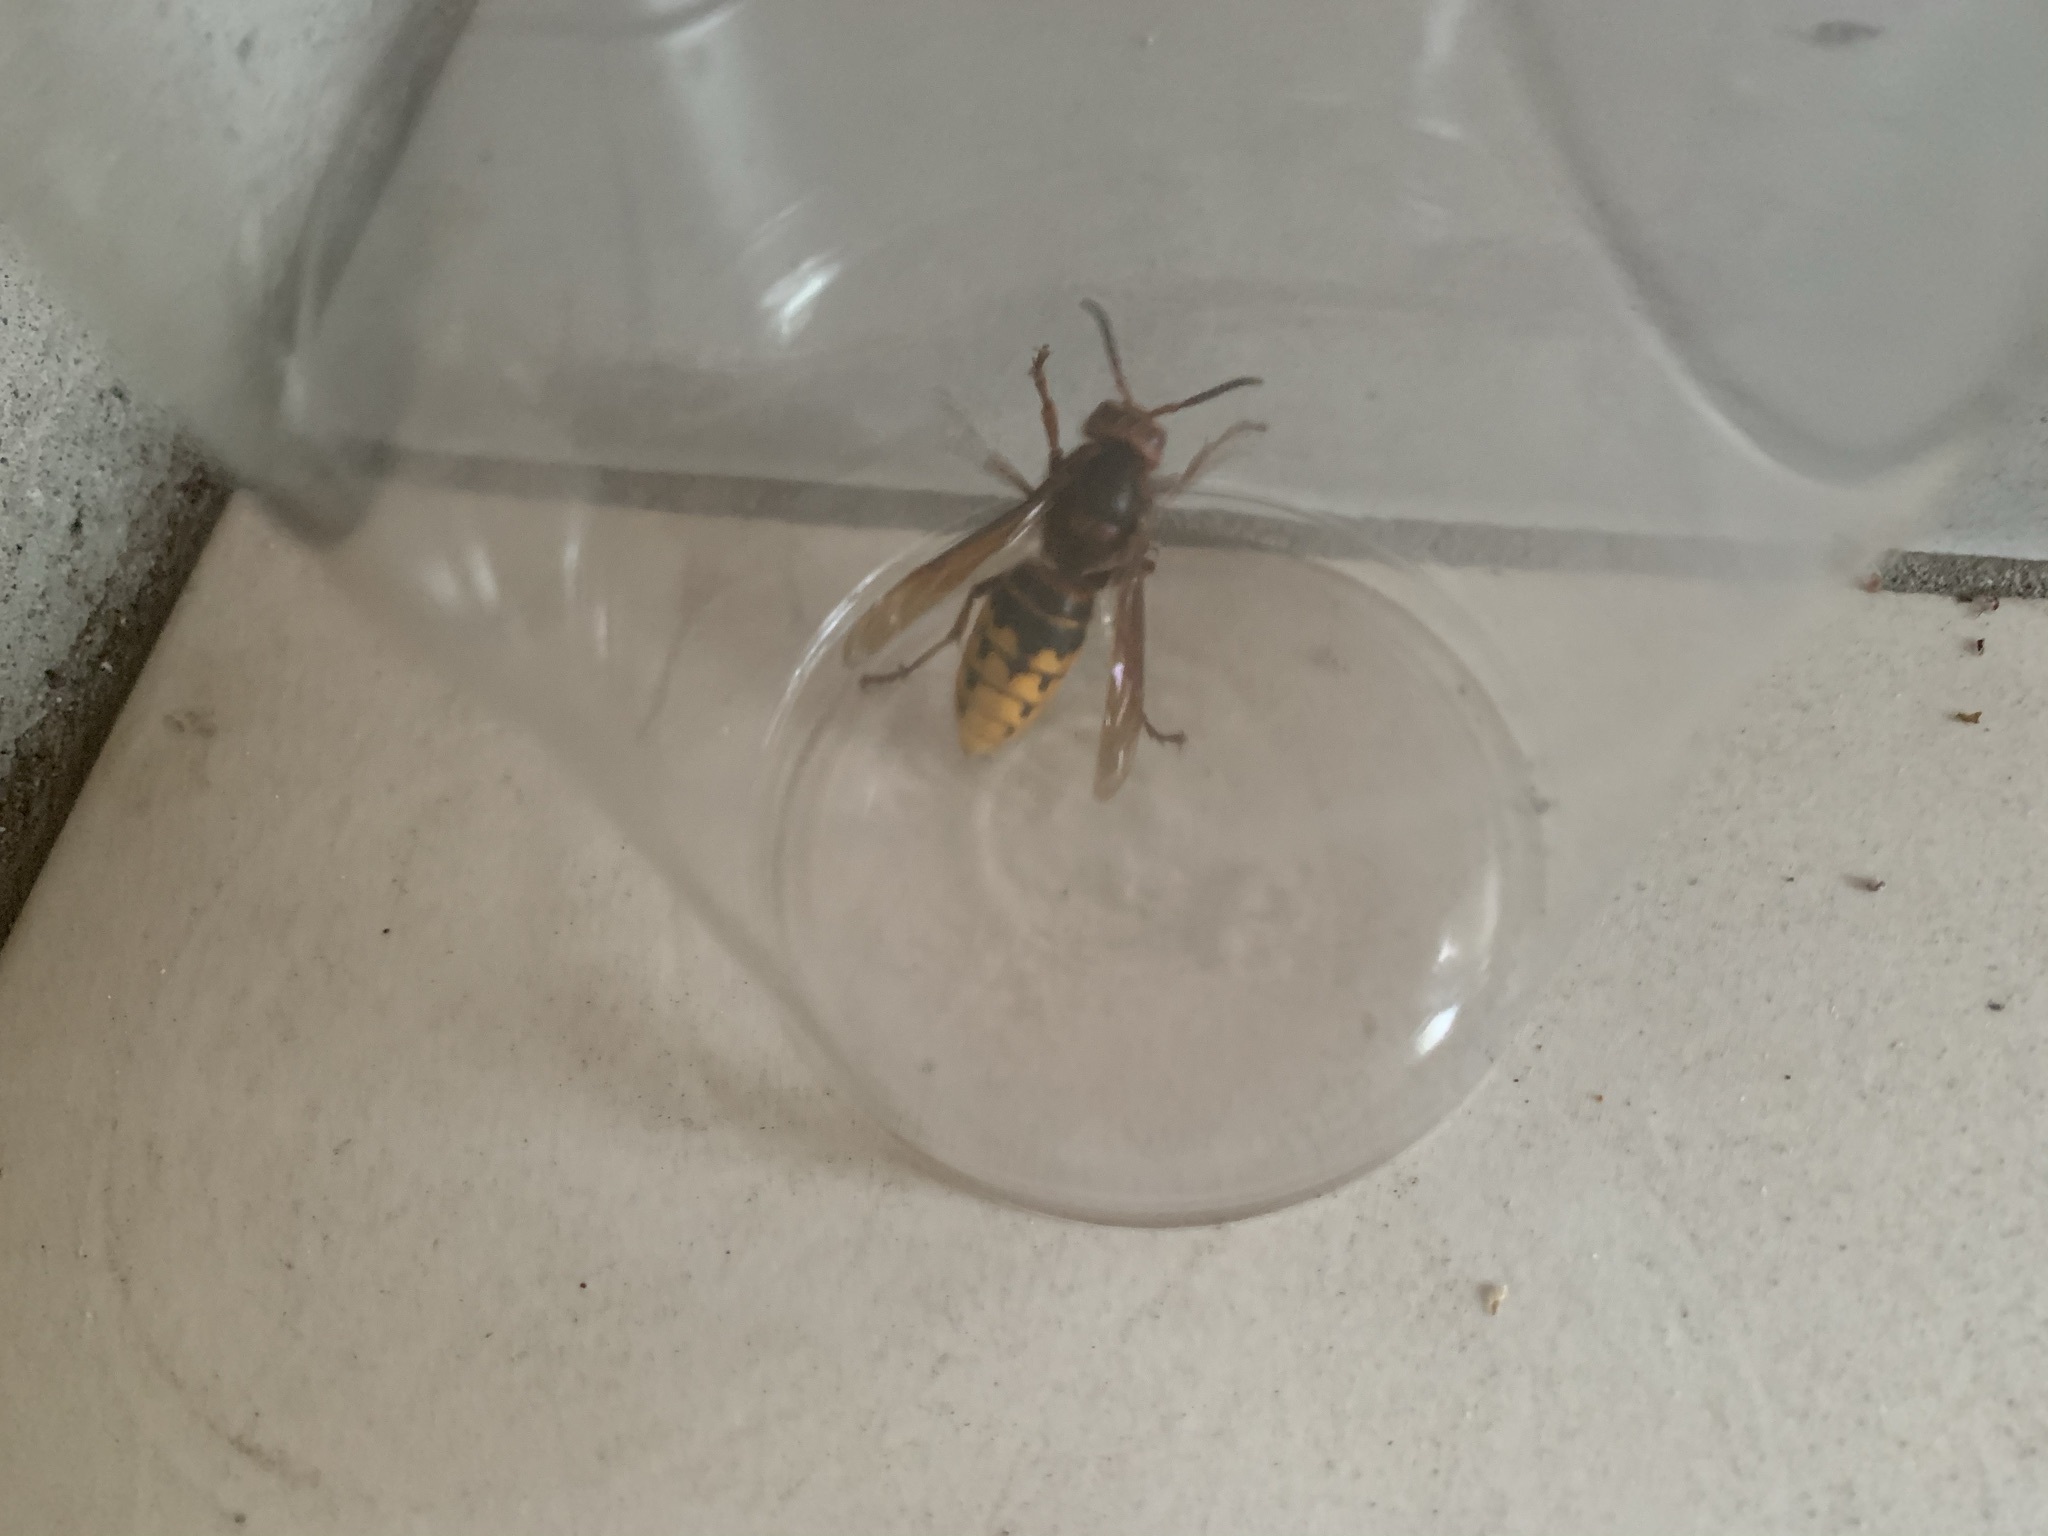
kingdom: Animalia
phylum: Arthropoda
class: Insecta
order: Hymenoptera
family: Vespidae
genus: Vespa
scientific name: Vespa crabro
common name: Hornet
